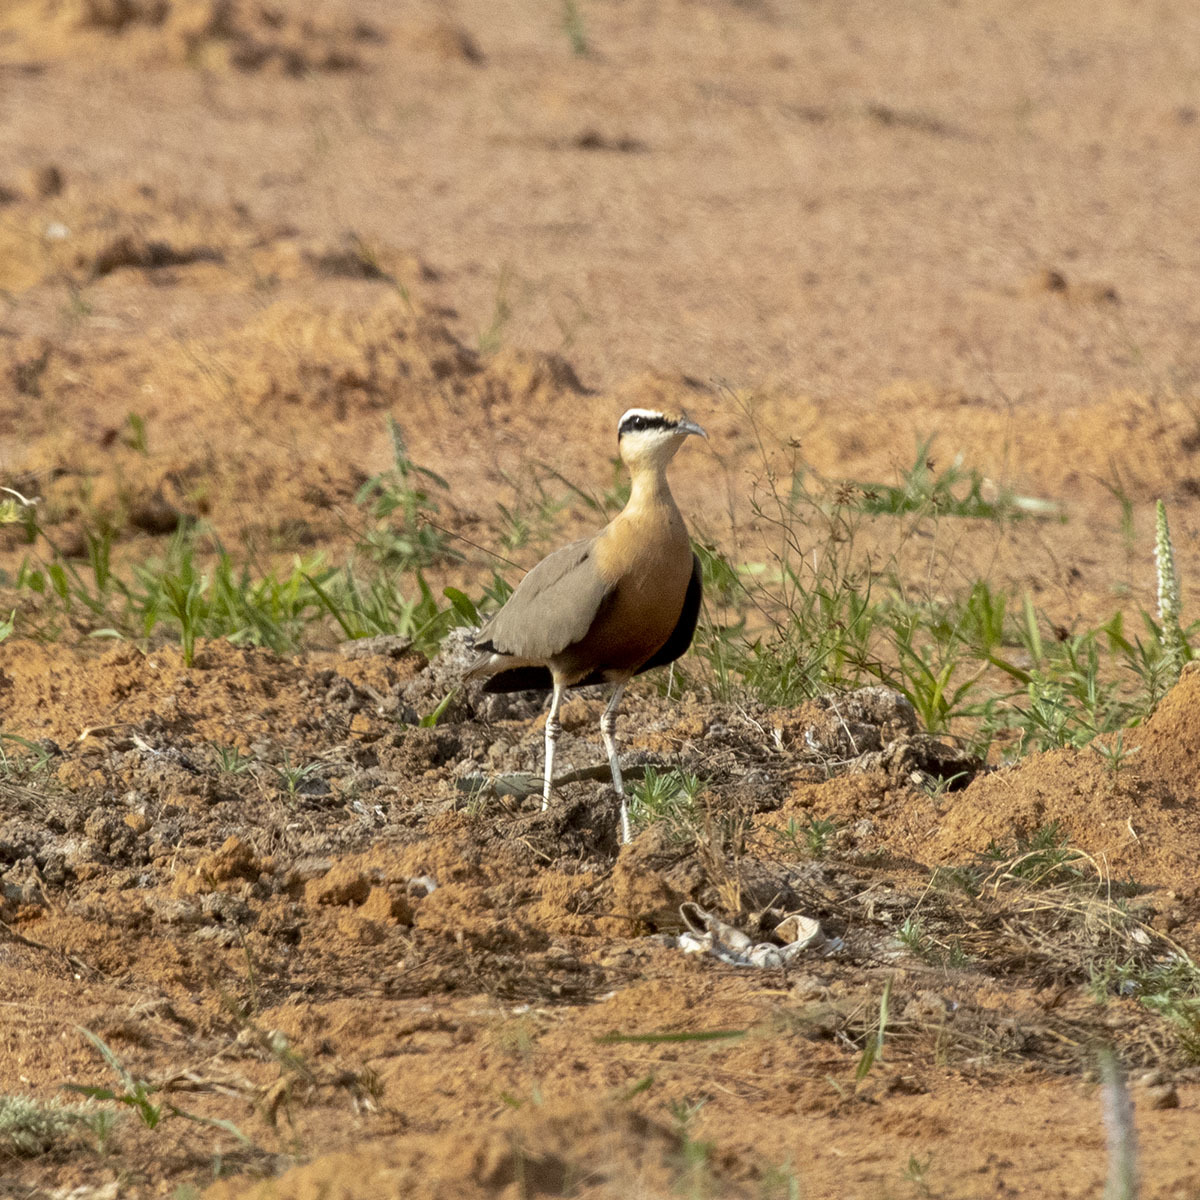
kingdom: Animalia
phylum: Chordata
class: Aves
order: Charadriiformes
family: Glareolidae
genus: Cursorius
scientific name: Cursorius coromandelicus
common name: Indian courser
